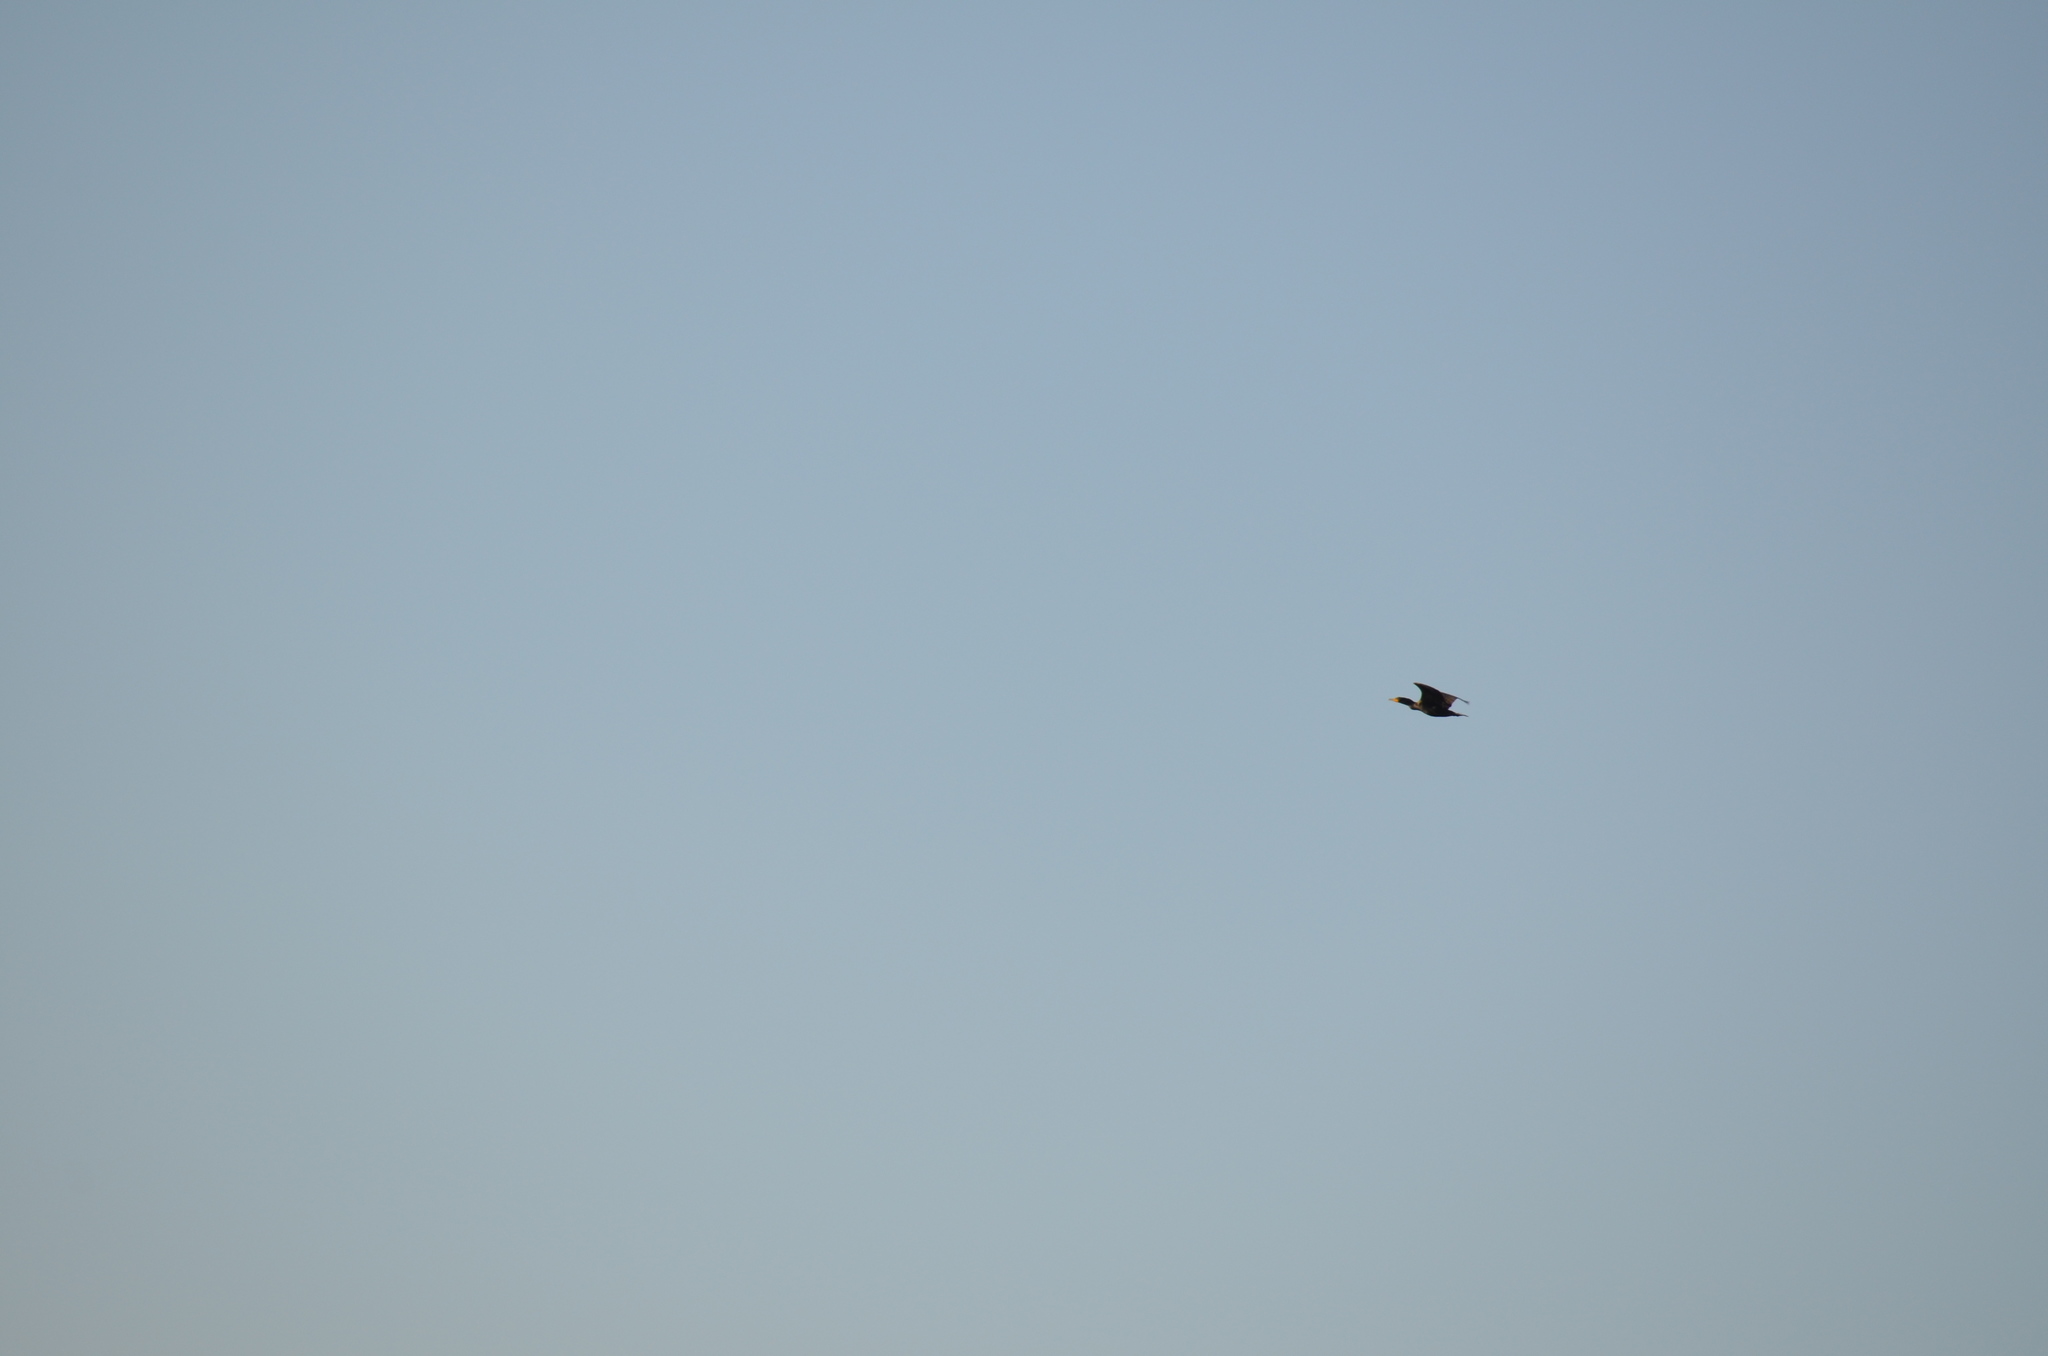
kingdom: Animalia
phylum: Chordata
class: Aves
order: Suliformes
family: Phalacrocoracidae
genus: Phalacrocorax
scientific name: Phalacrocorax auritus
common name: Double-crested cormorant
